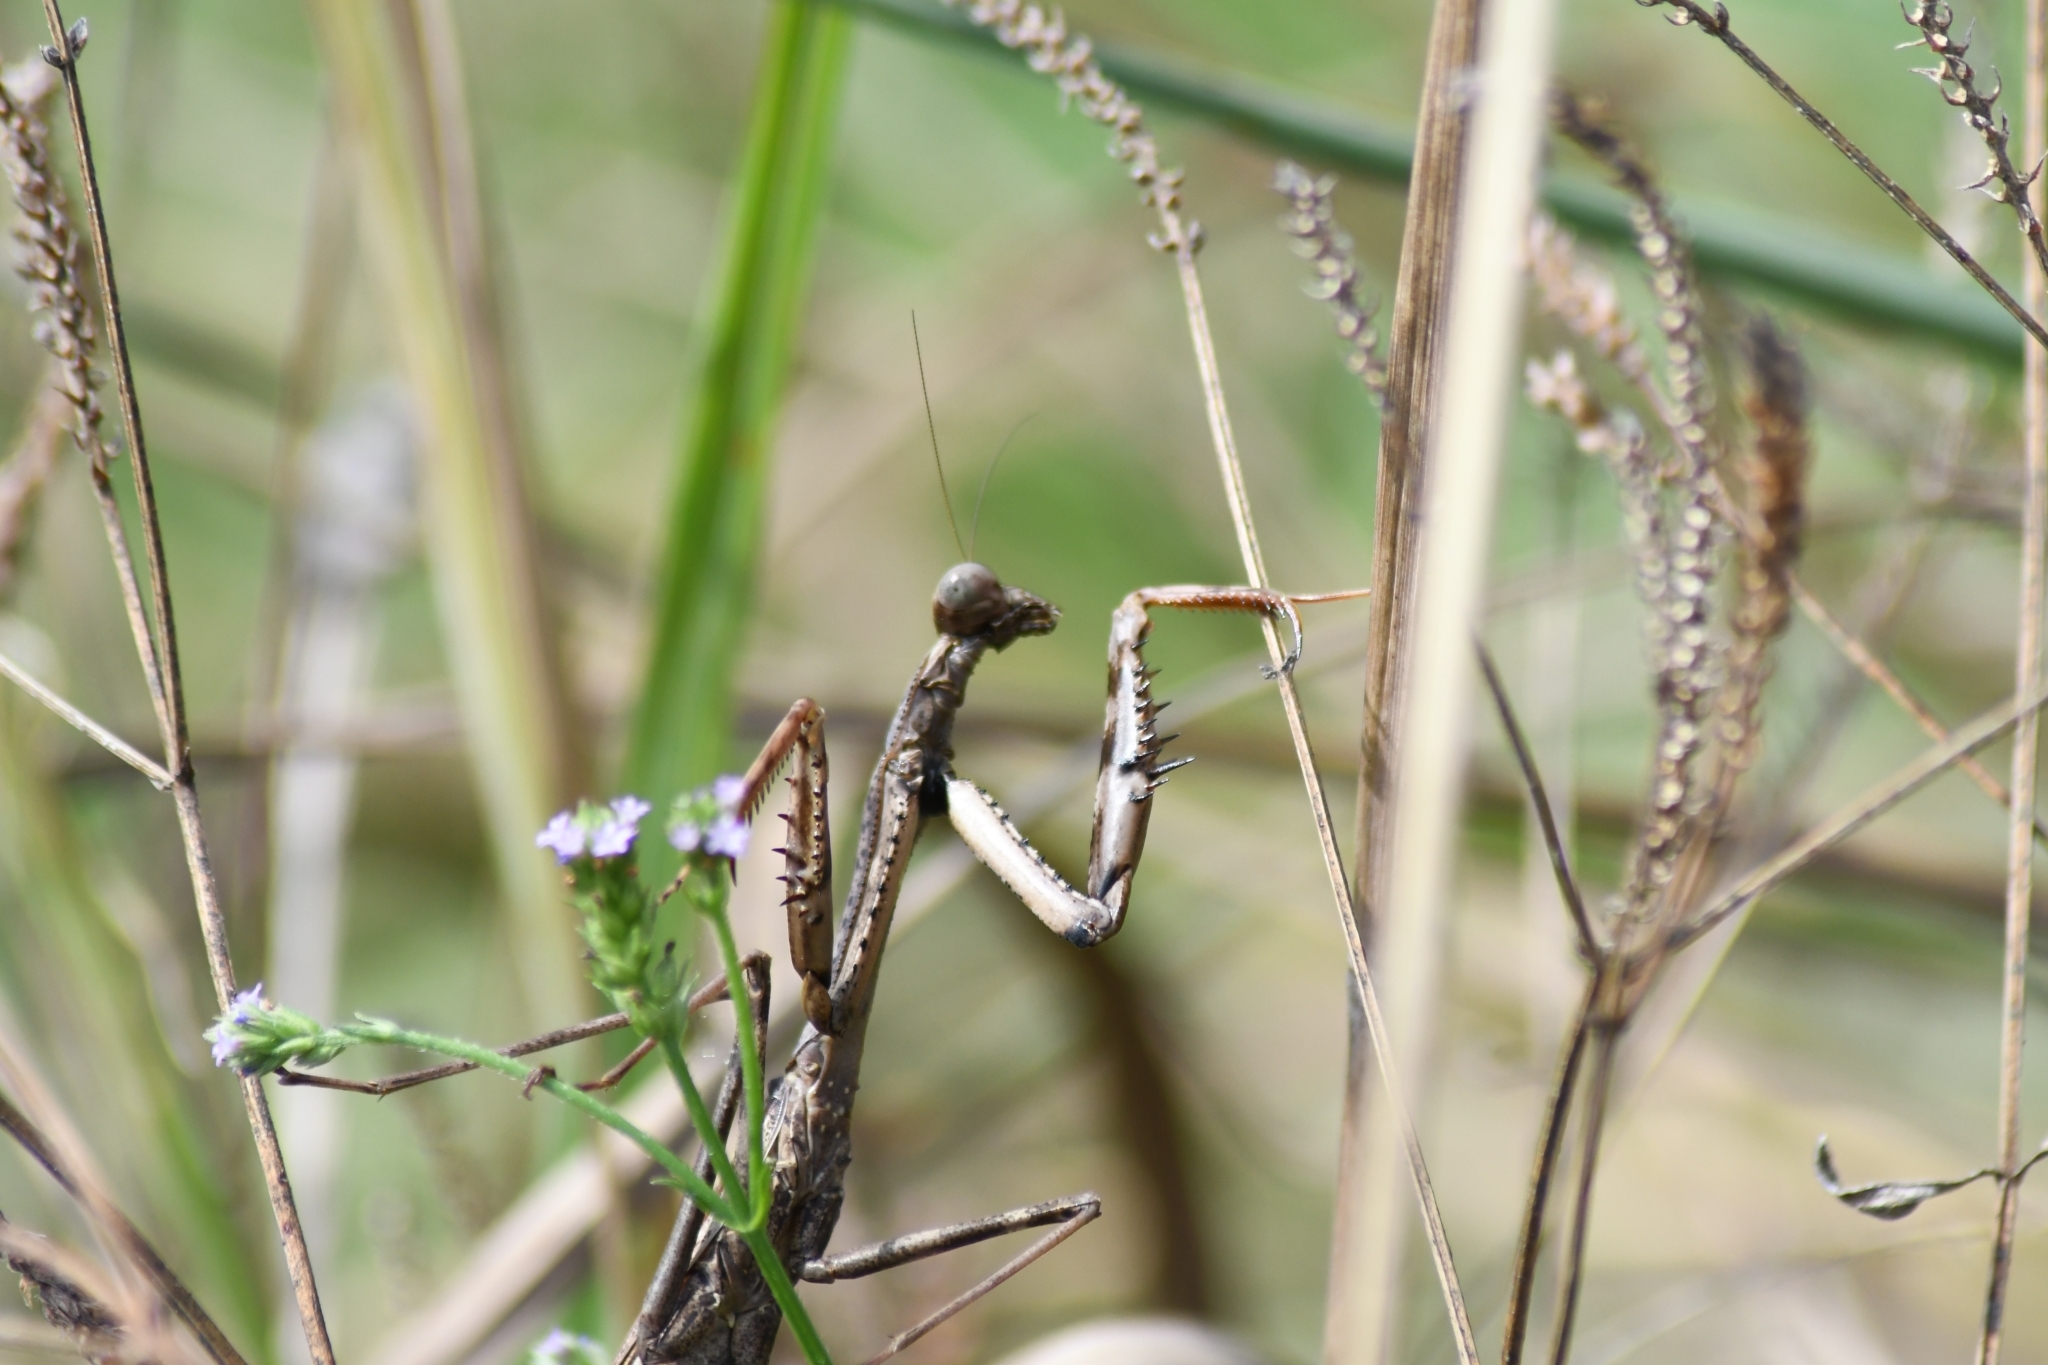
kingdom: Animalia
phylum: Arthropoda
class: Insecta
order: Mantodea
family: Mantidae
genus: Stagmomantis
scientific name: Stagmomantis carolina
